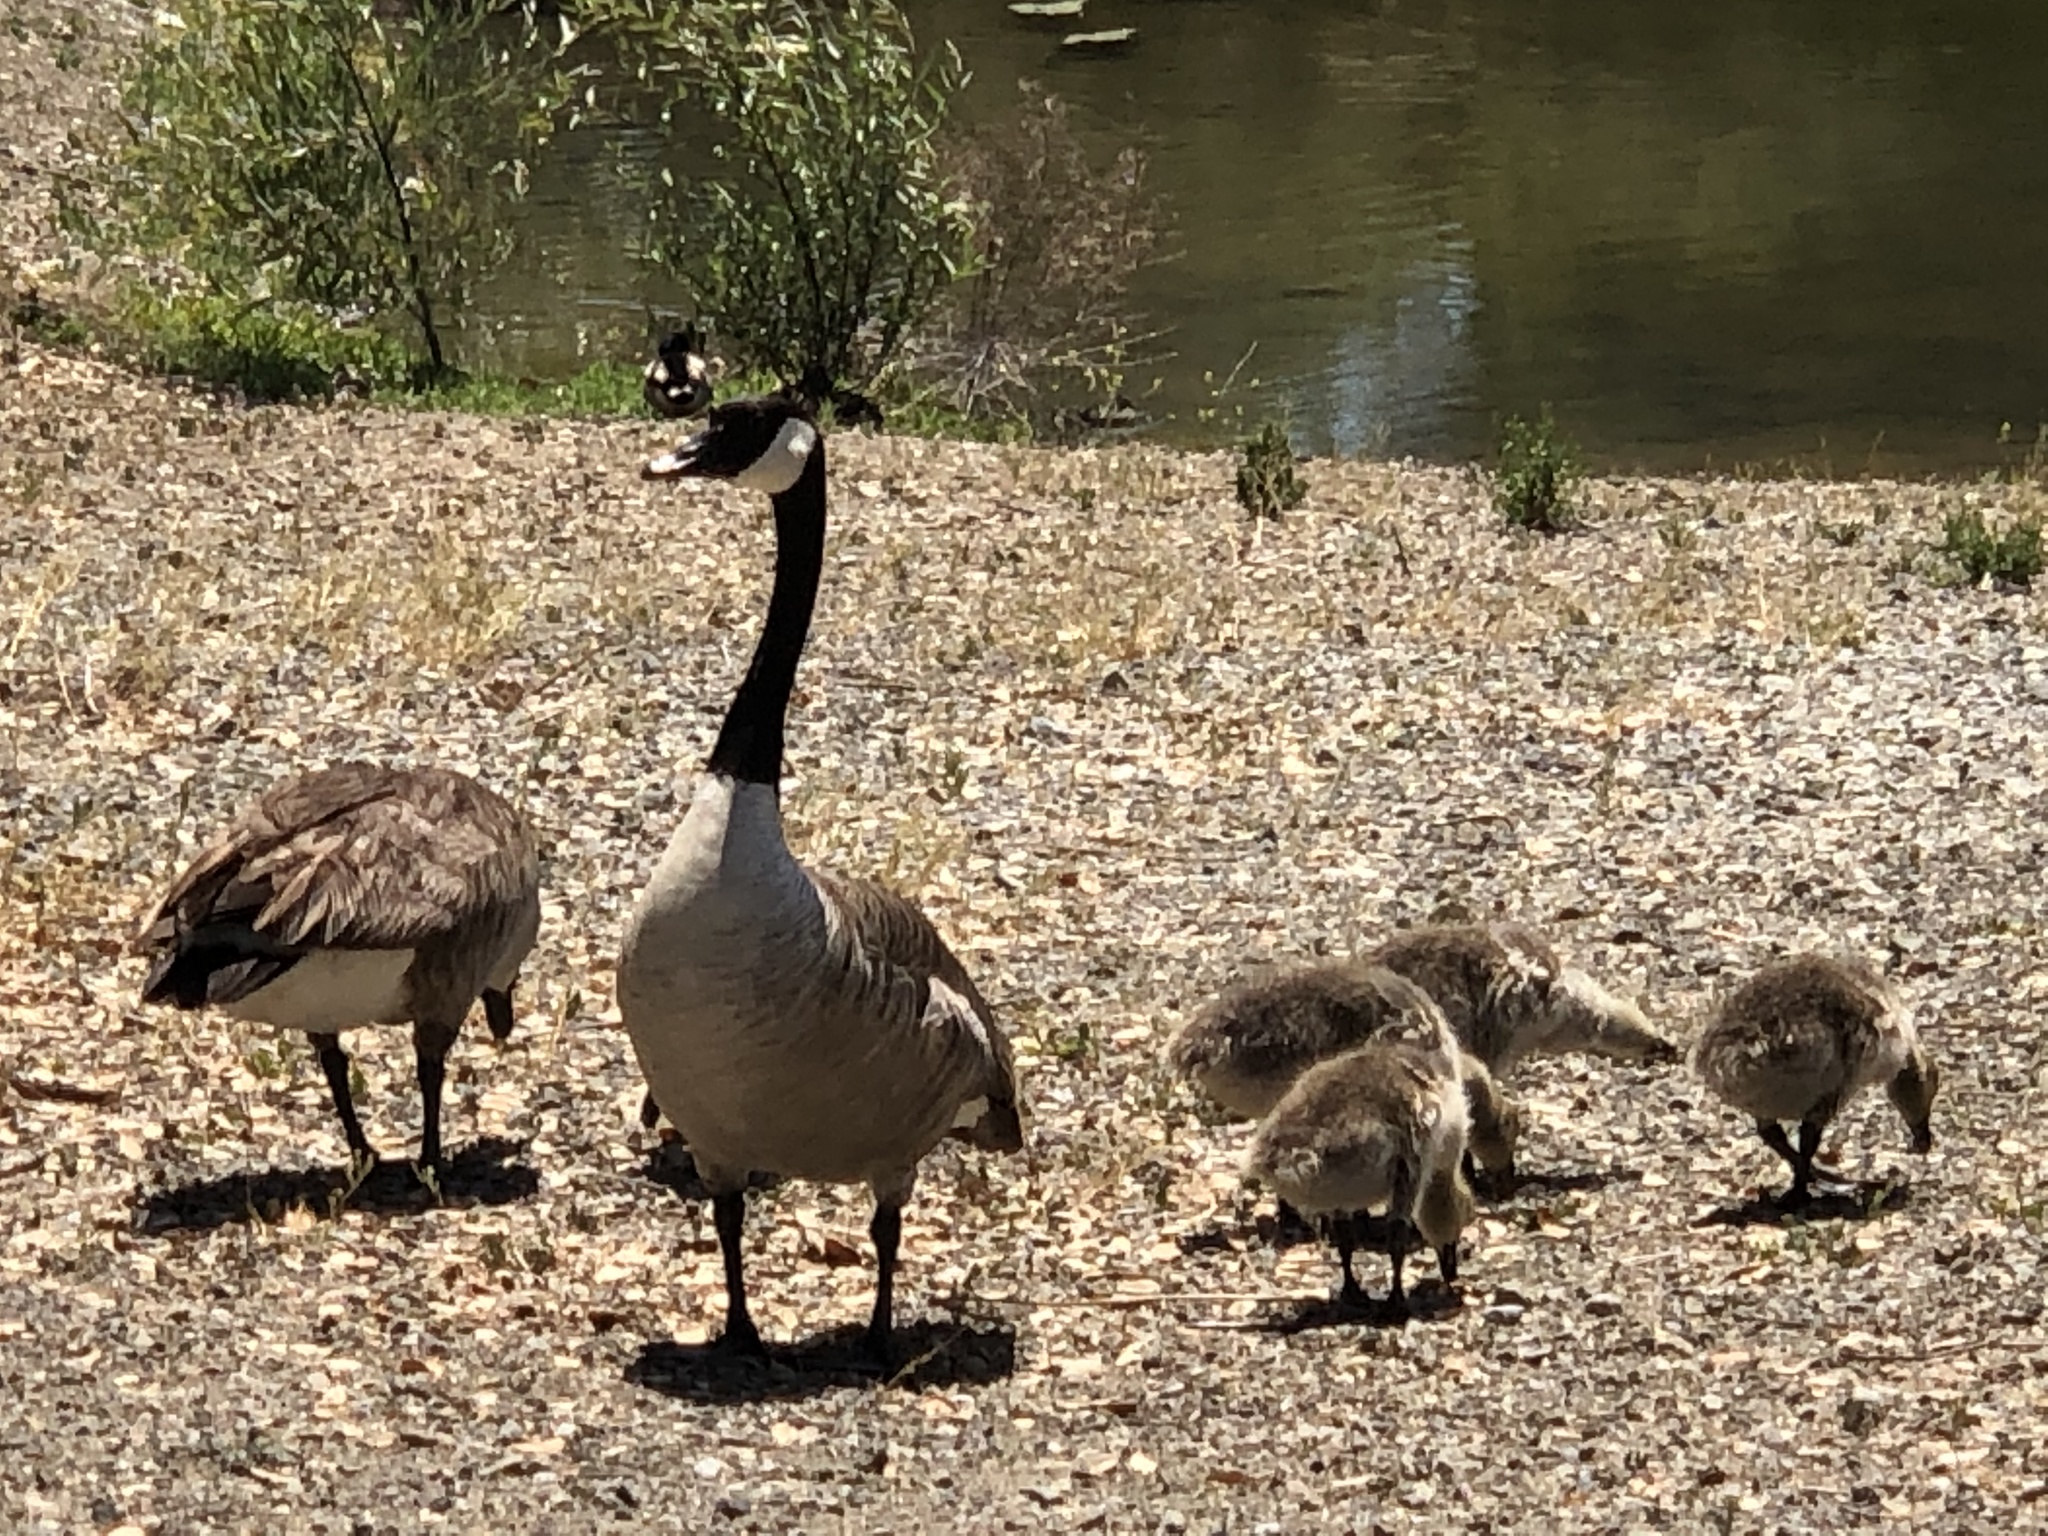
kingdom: Animalia
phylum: Chordata
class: Aves
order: Anseriformes
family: Anatidae
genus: Branta
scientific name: Branta canadensis
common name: Canada goose
